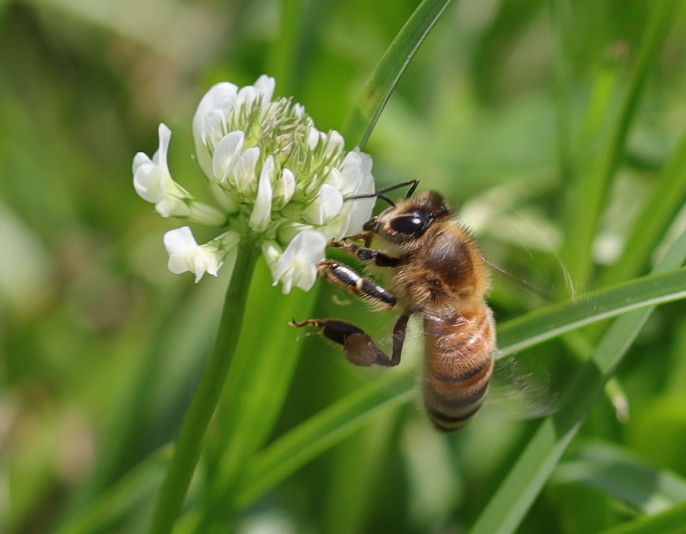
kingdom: Animalia
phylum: Arthropoda
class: Insecta
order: Hymenoptera
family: Apidae
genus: Apis
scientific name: Apis mellifera
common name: Honey bee
